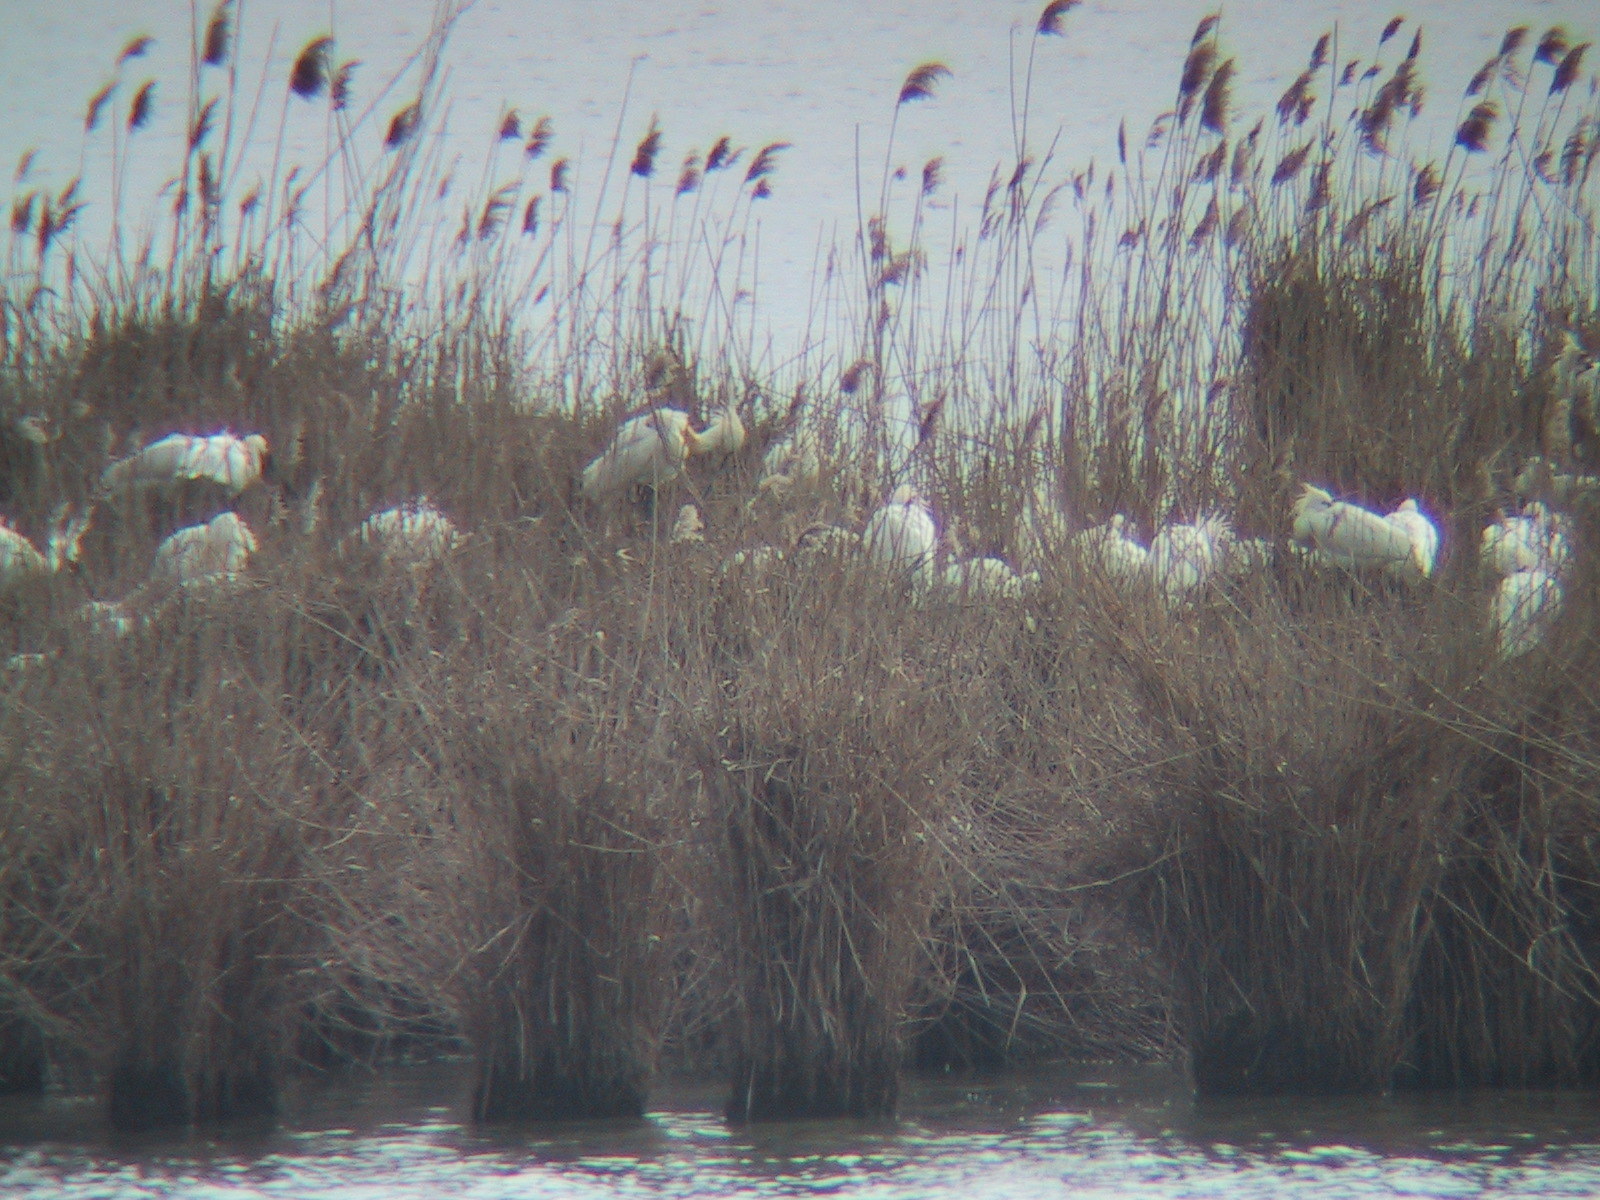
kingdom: Animalia
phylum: Chordata
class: Aves
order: Pelecaniformes
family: Threskiornithidae
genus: Platalea
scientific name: Platalea leucorodia
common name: Eurasian spoonbill
